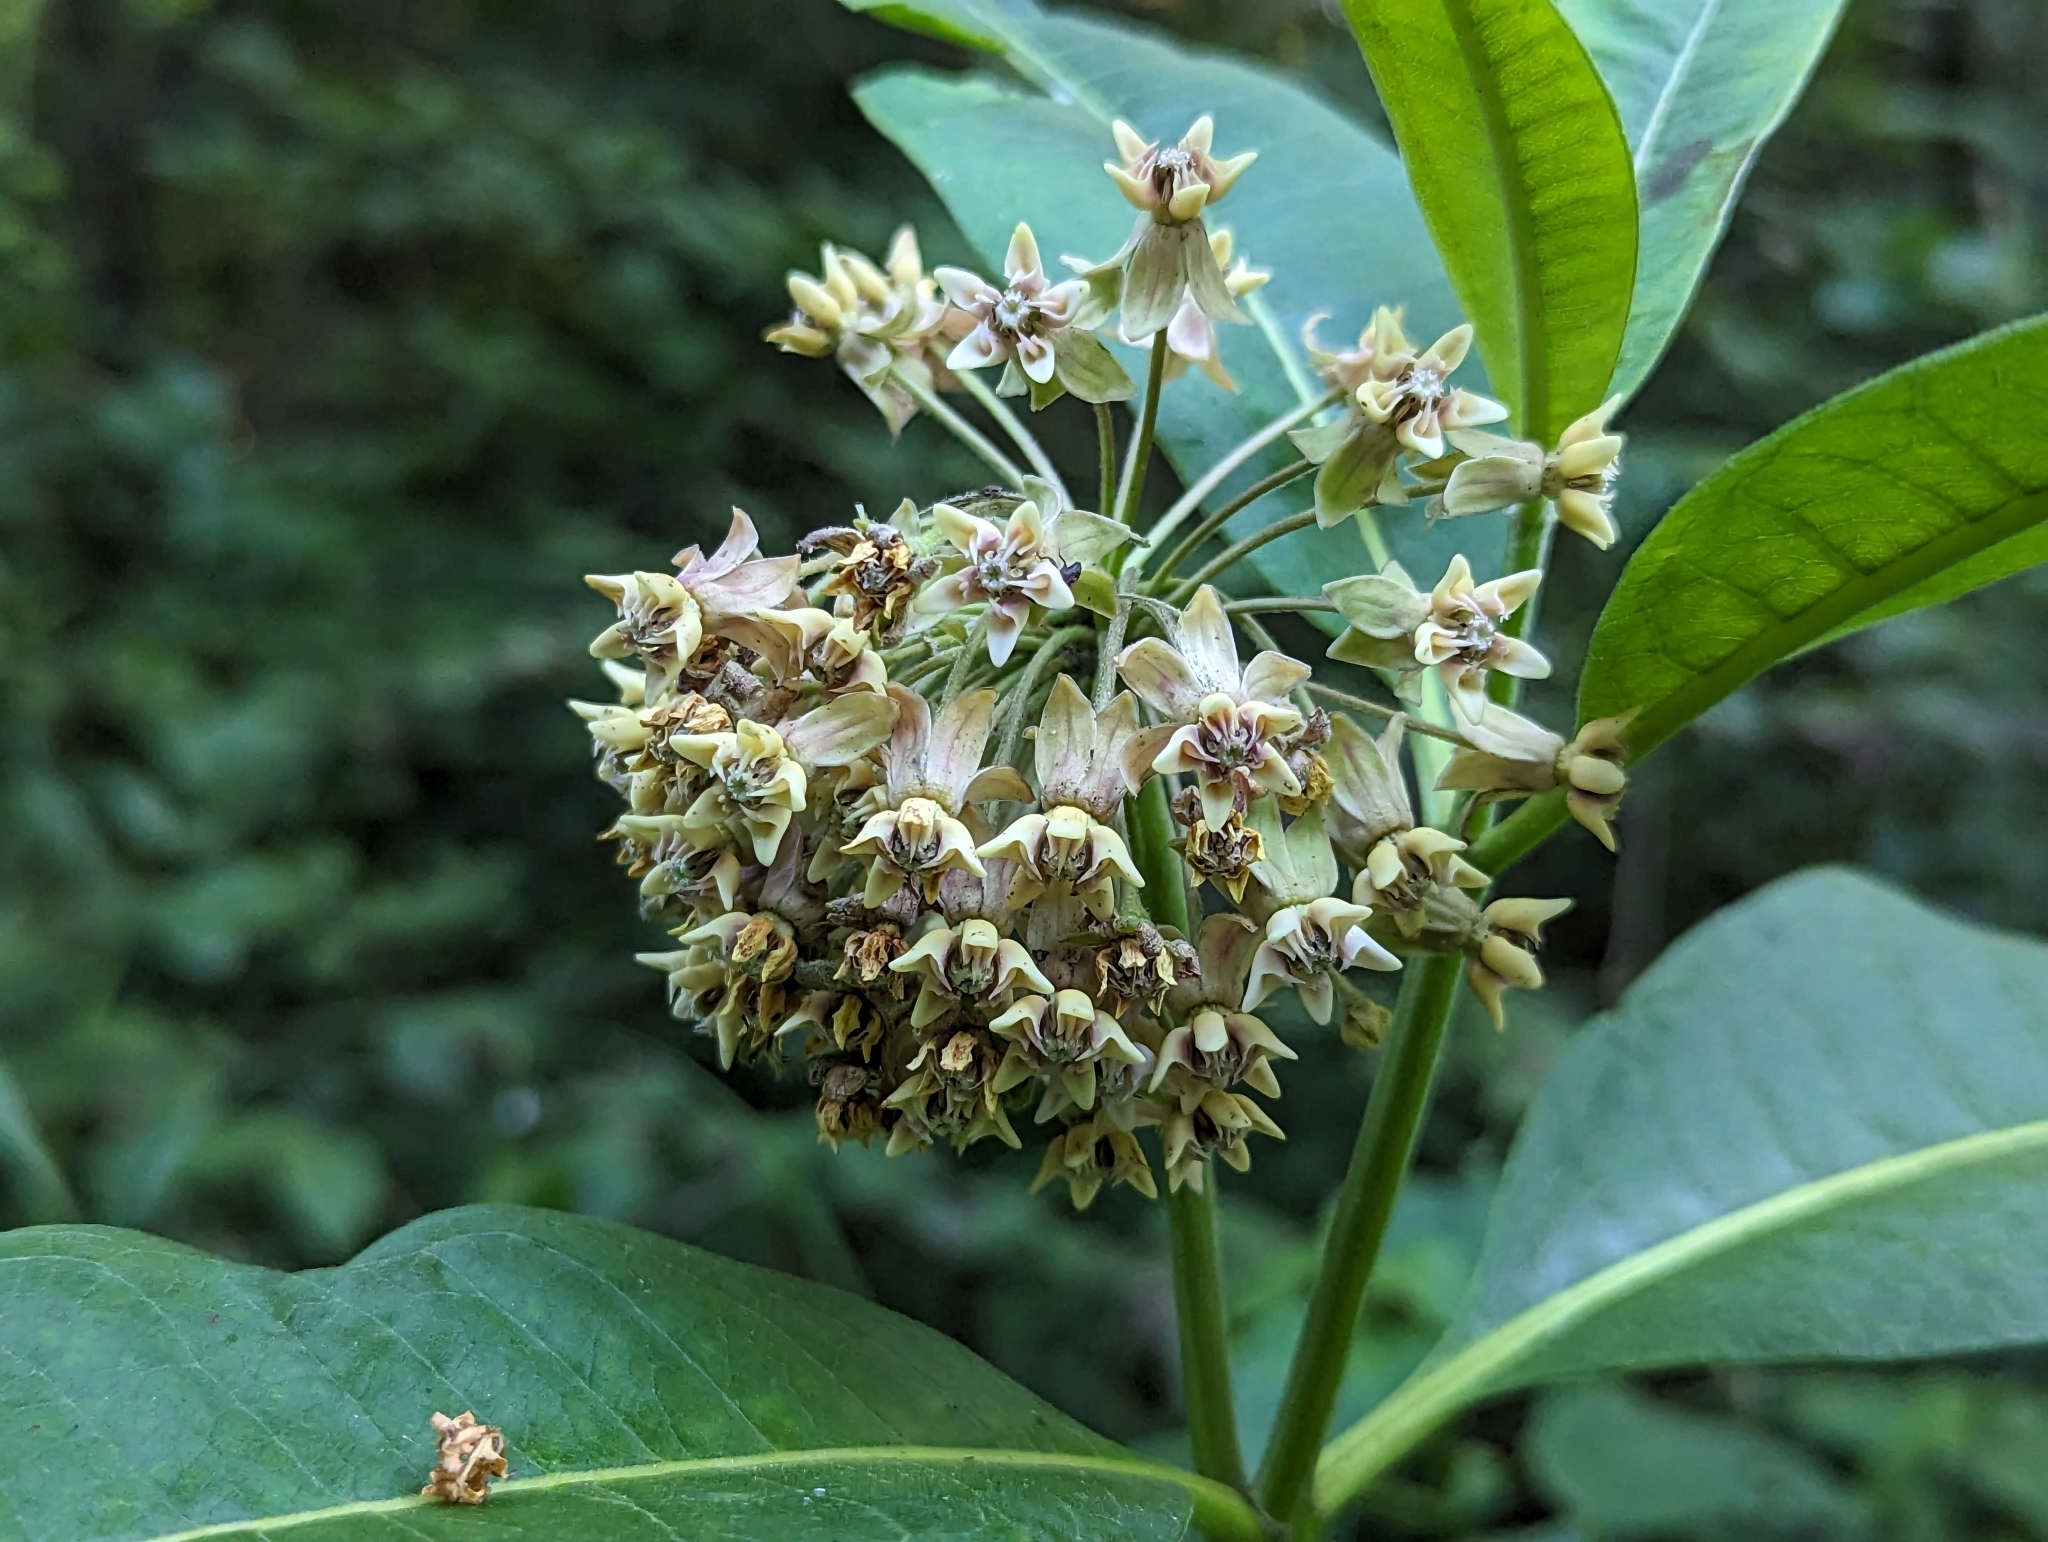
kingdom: Plantae
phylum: Tracheophyta
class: Magnoliopsida
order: Gentianales
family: Apocynaceae
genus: Asclepias
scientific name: Asclepias syriaca
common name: Common milkweed
